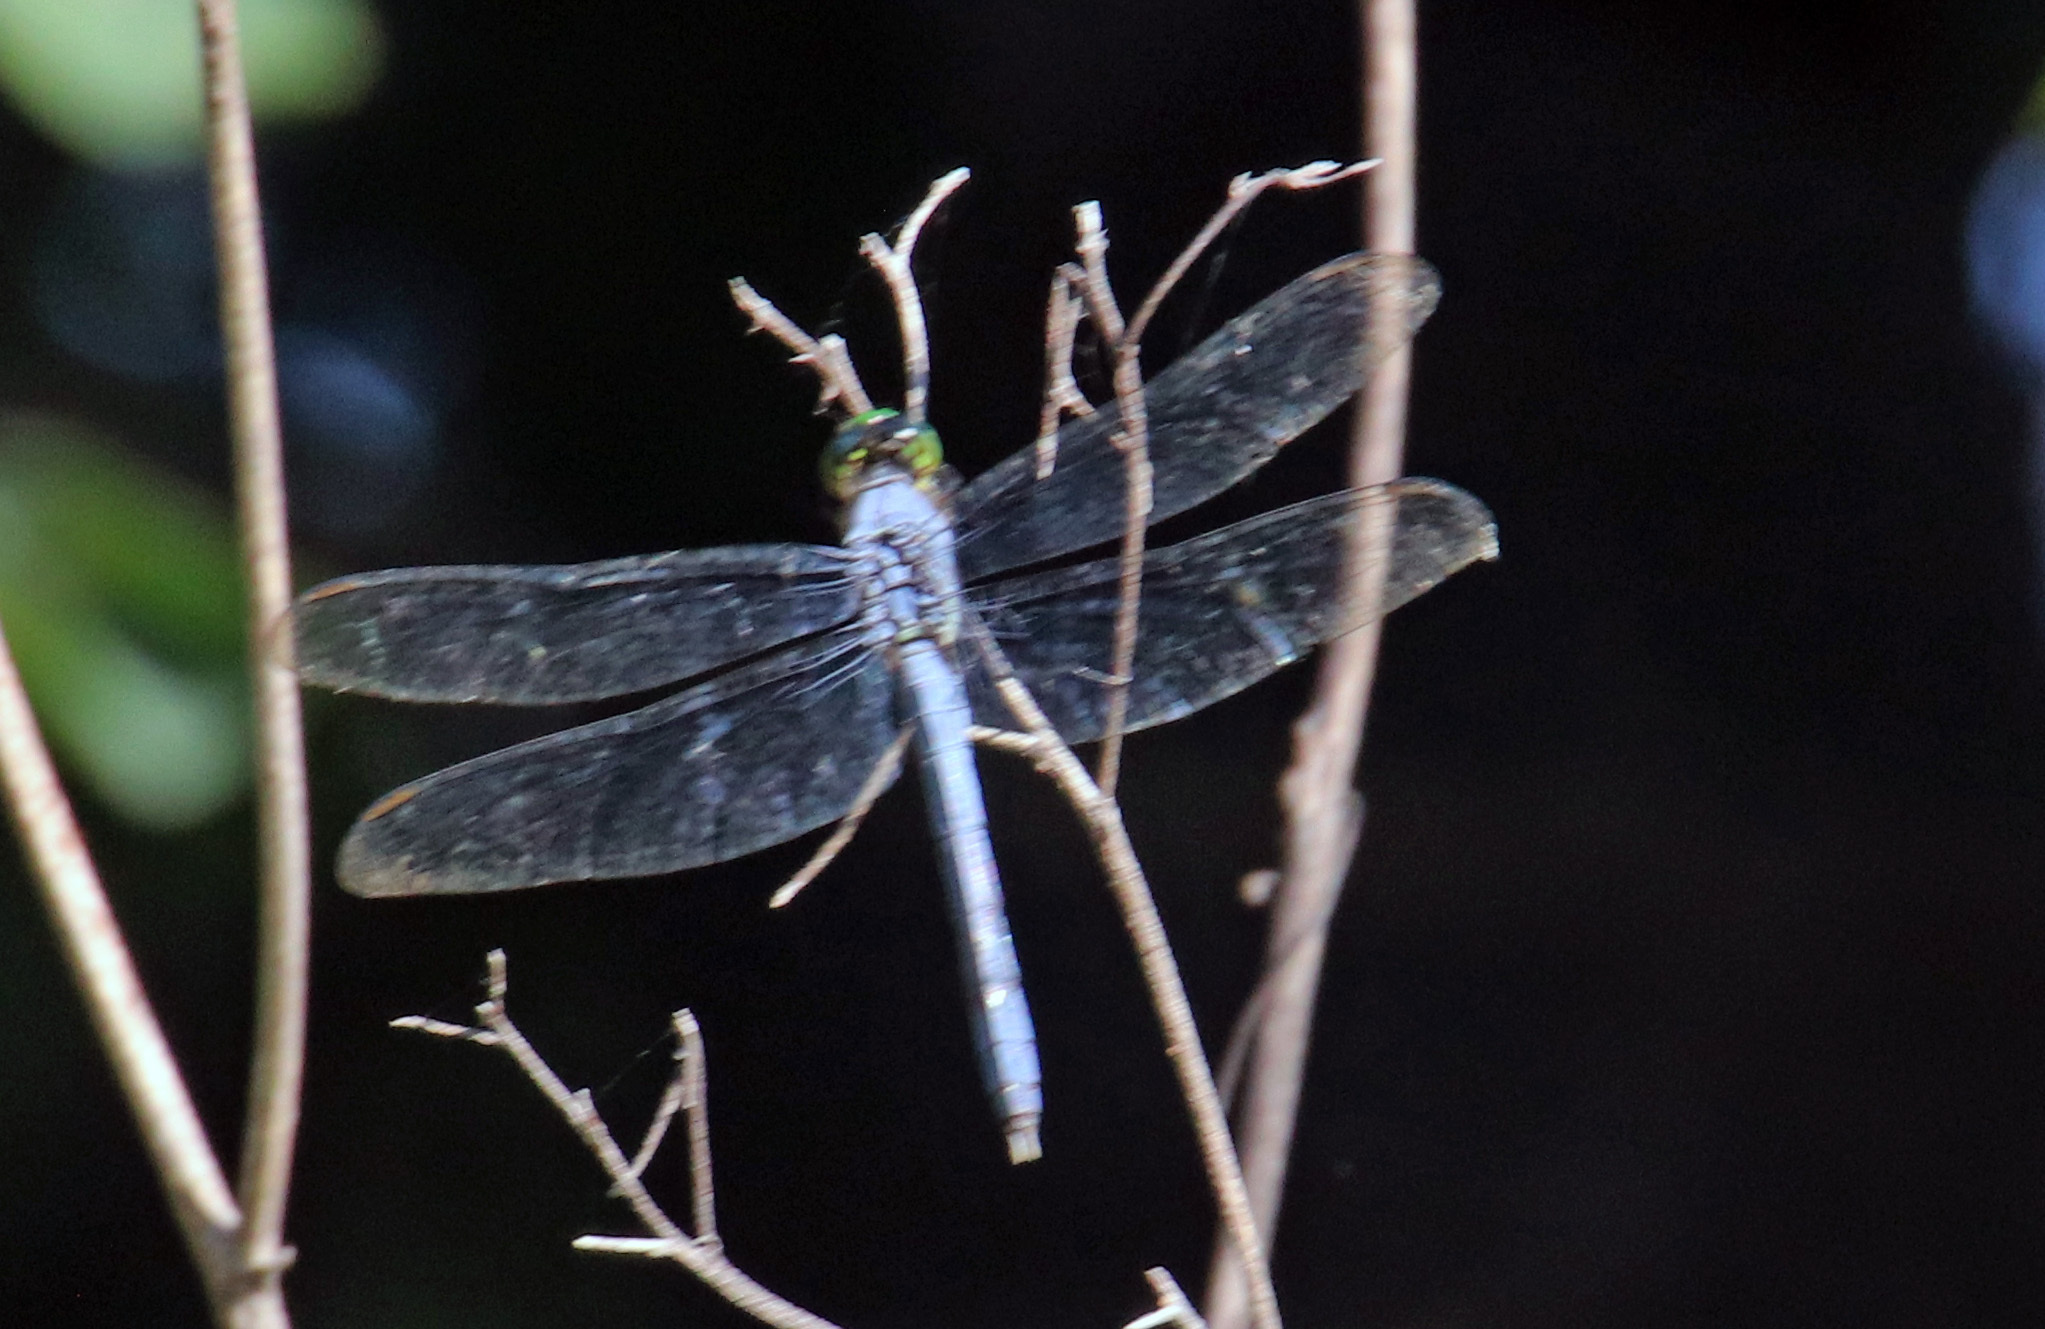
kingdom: Animalia
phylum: Arthropoda
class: Insecta
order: Odonata
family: Libellulidae
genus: Erythemis
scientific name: Erythemis simplicicollis
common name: Eastern pondhawk
